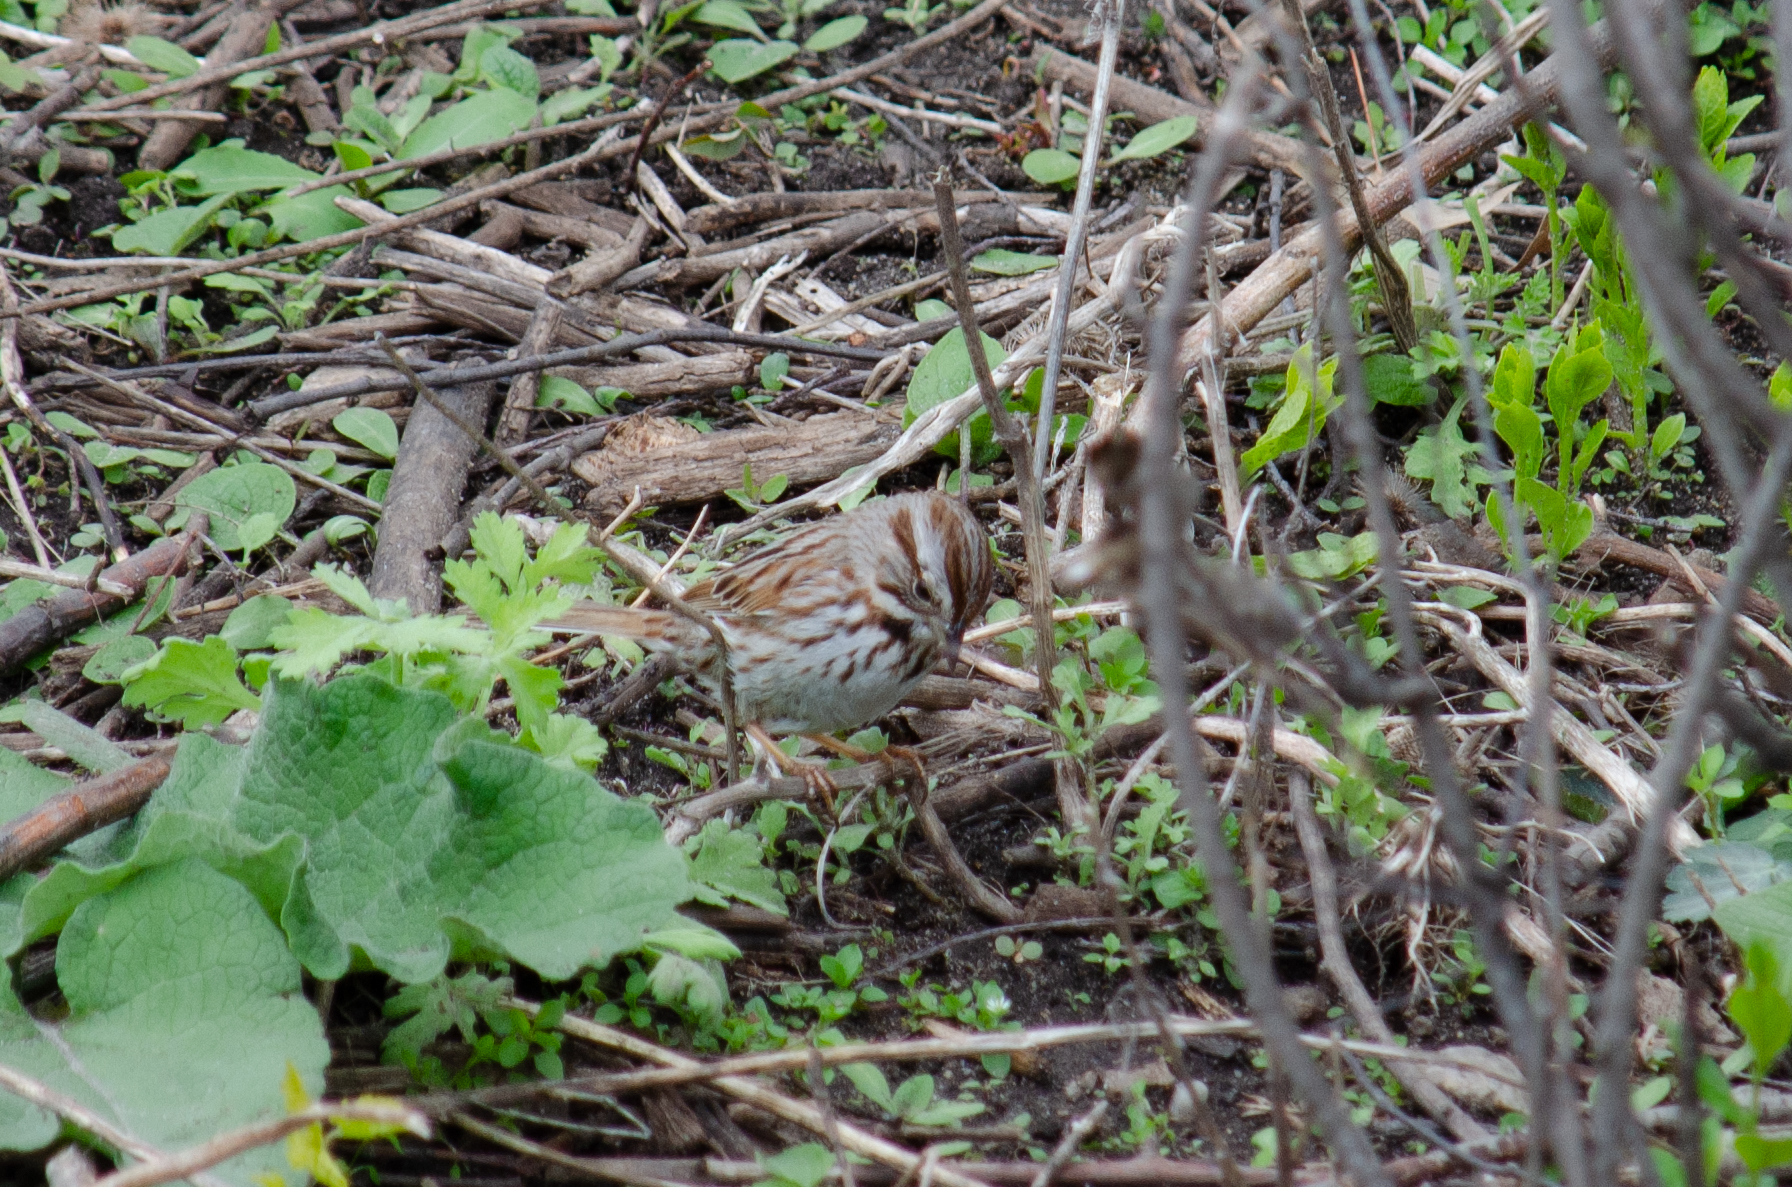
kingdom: Animalia
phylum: Chordata
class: Aves
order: Passeriformes
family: Passerellidae
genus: Melospiza
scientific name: Melospiza melodia
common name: Song sparrow
